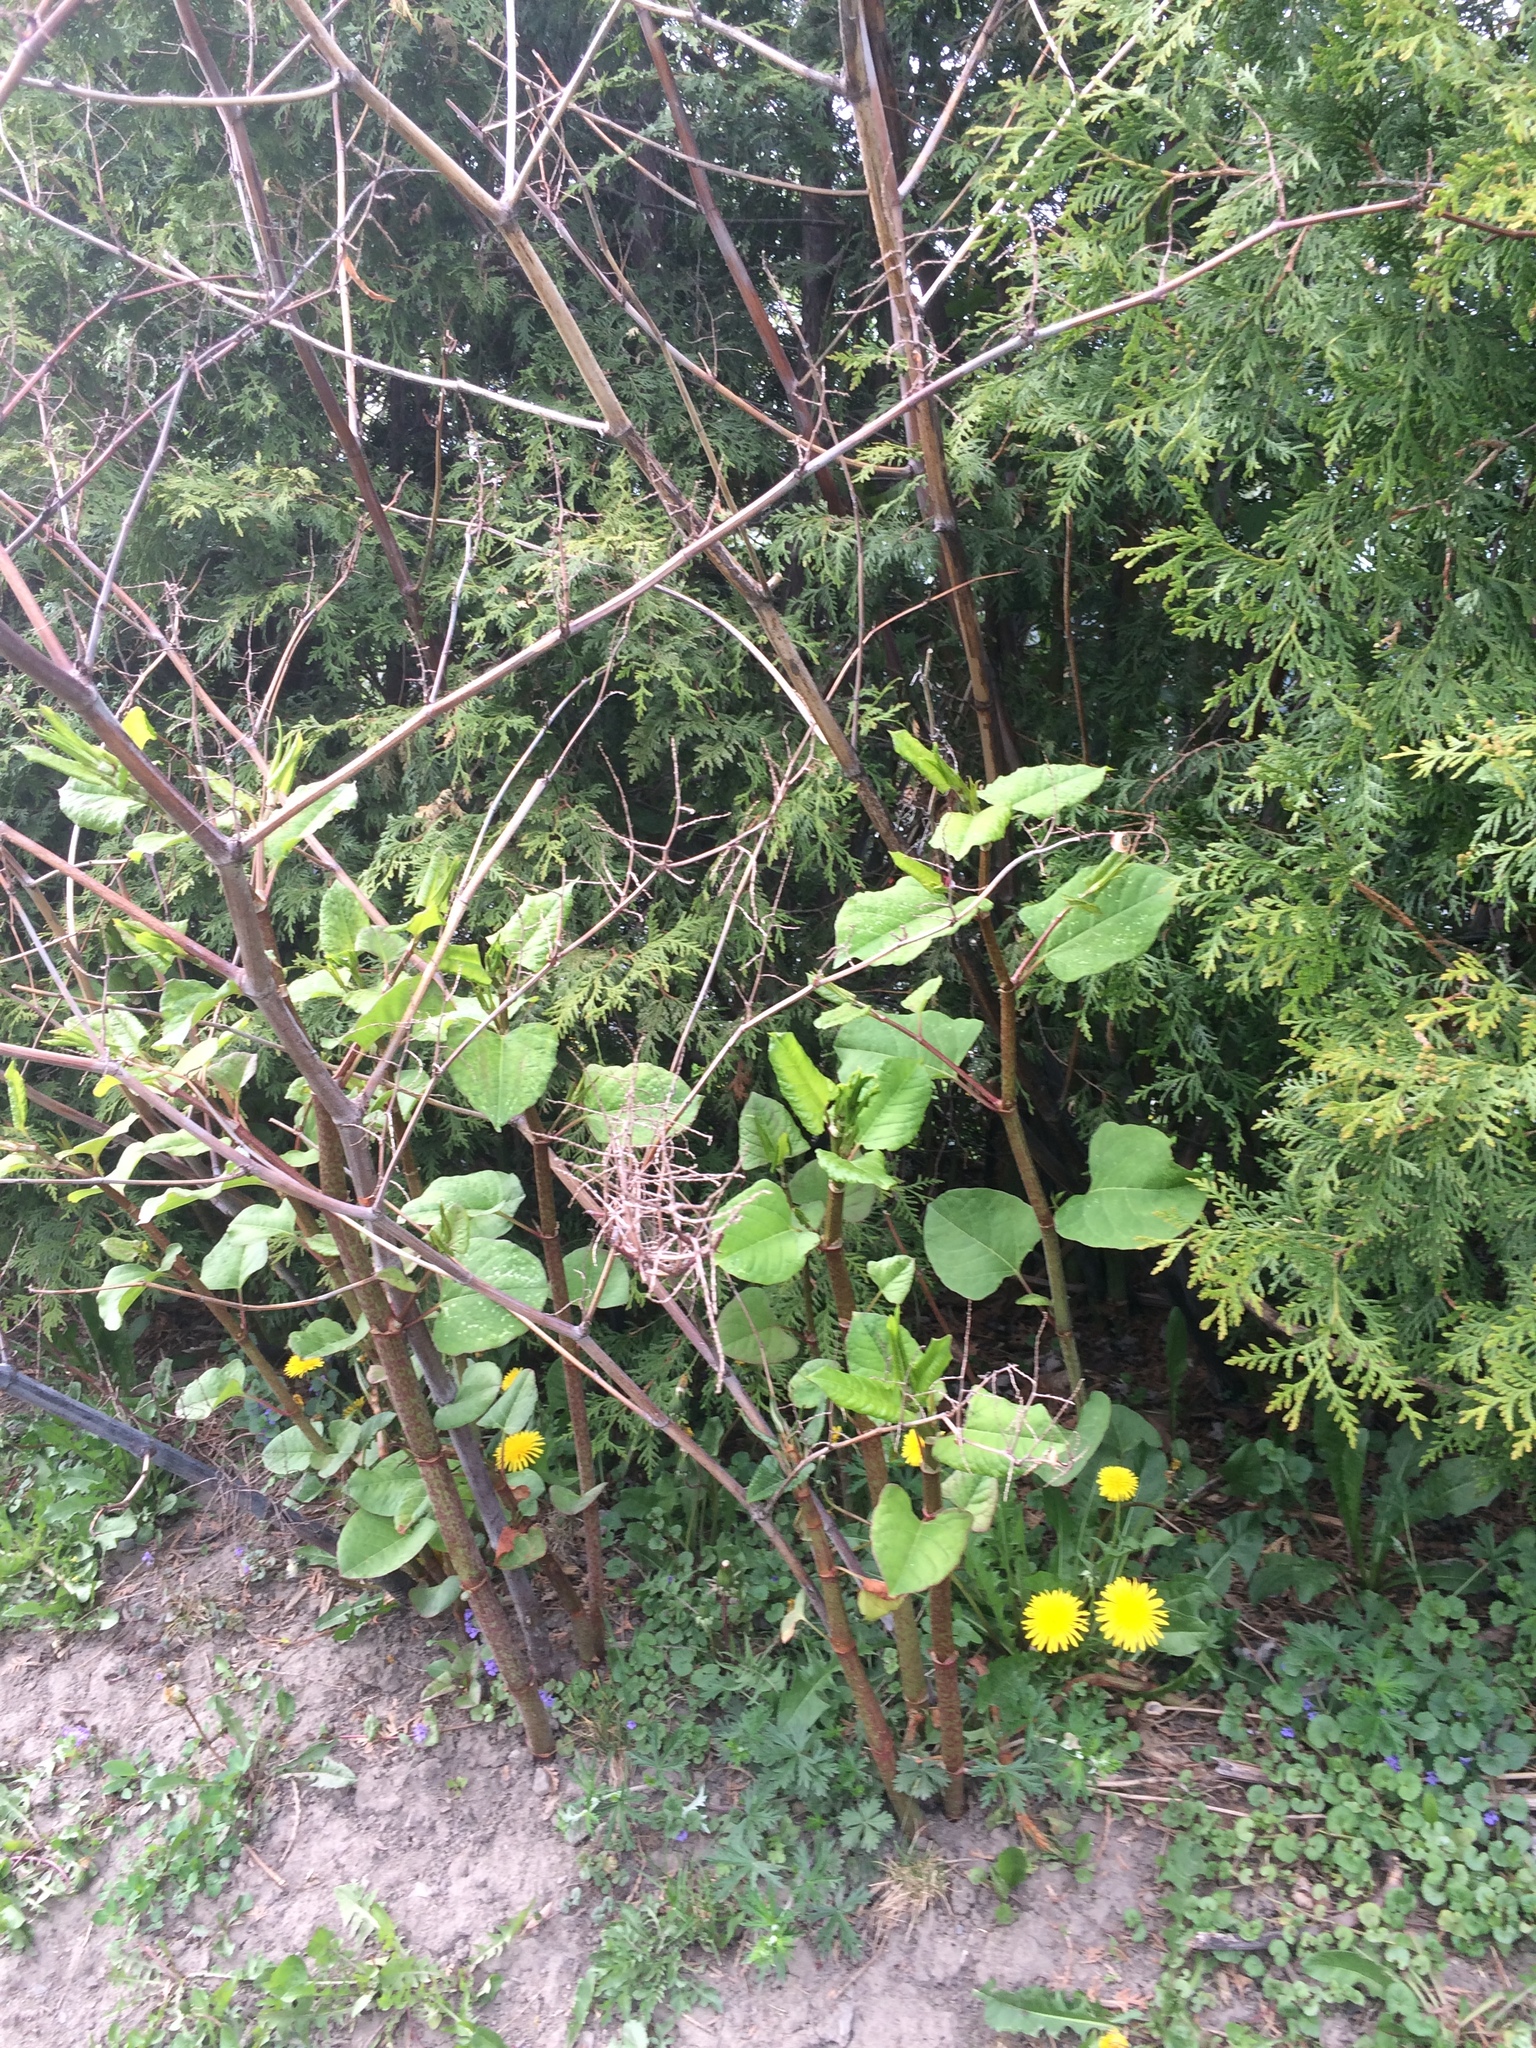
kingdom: Plantae
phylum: Tracheophyta
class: Magnoliopsida
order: Caryophyllales
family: Polygonaceae
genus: Reynoutria
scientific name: Reynoutria japonica
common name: Japanese knotweed
